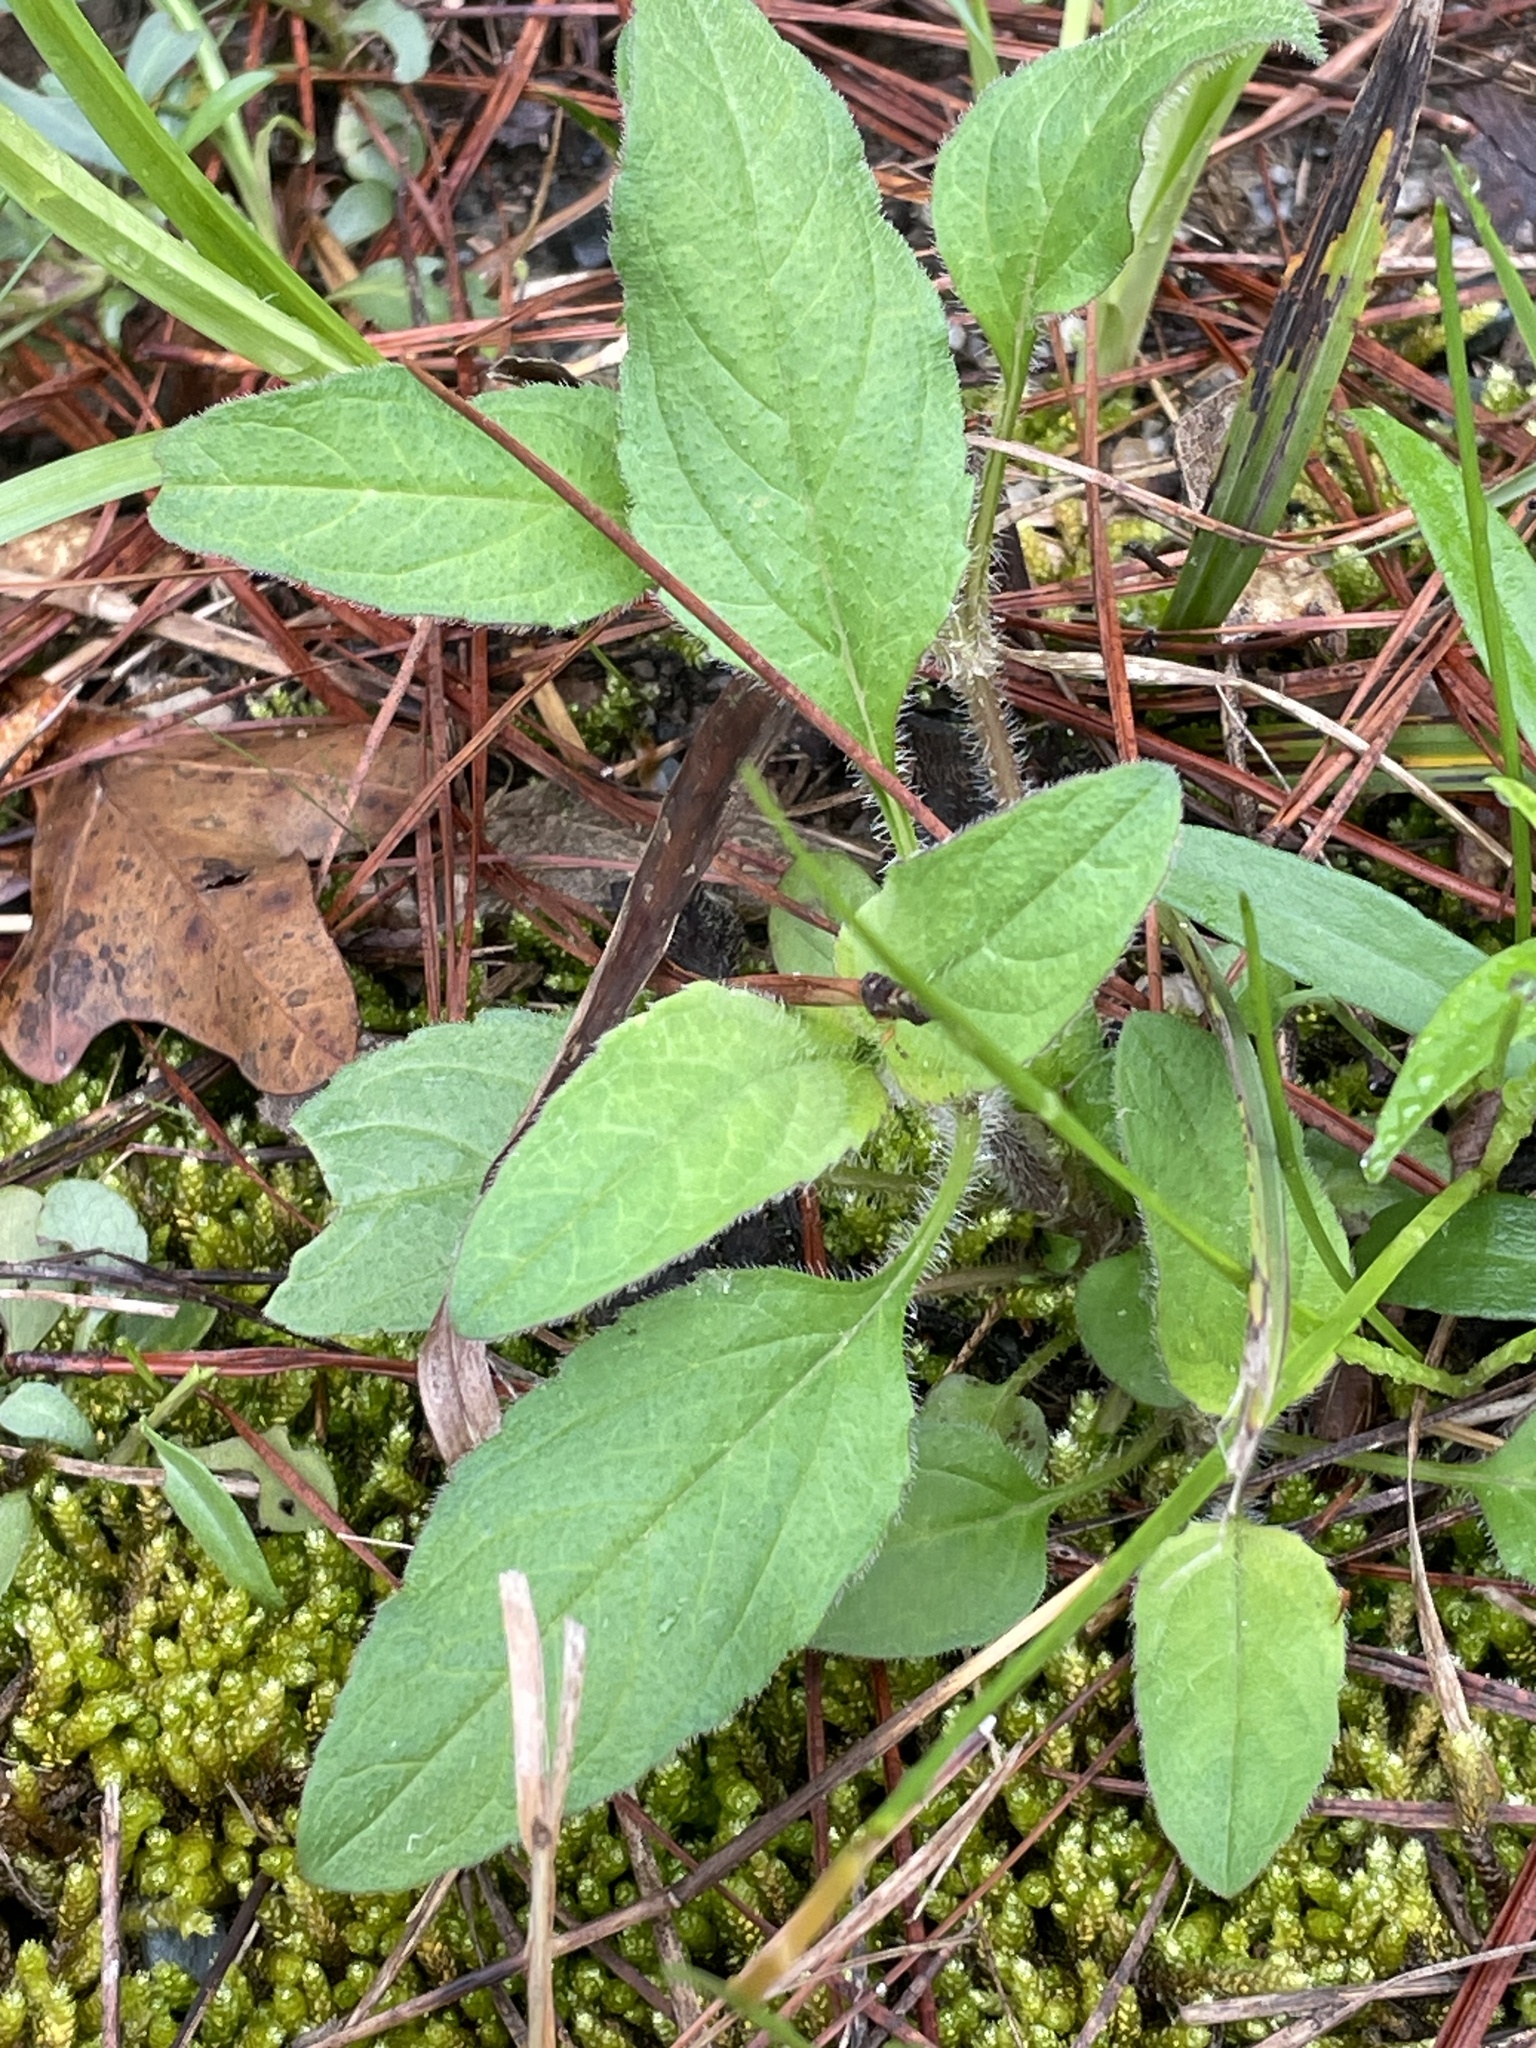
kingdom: Plantae
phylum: Tracheophyta
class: Magnoliopsida
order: Lamiales
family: Lamiaceae
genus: Prunella
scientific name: Prunella vulgaris
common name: Heal-all
